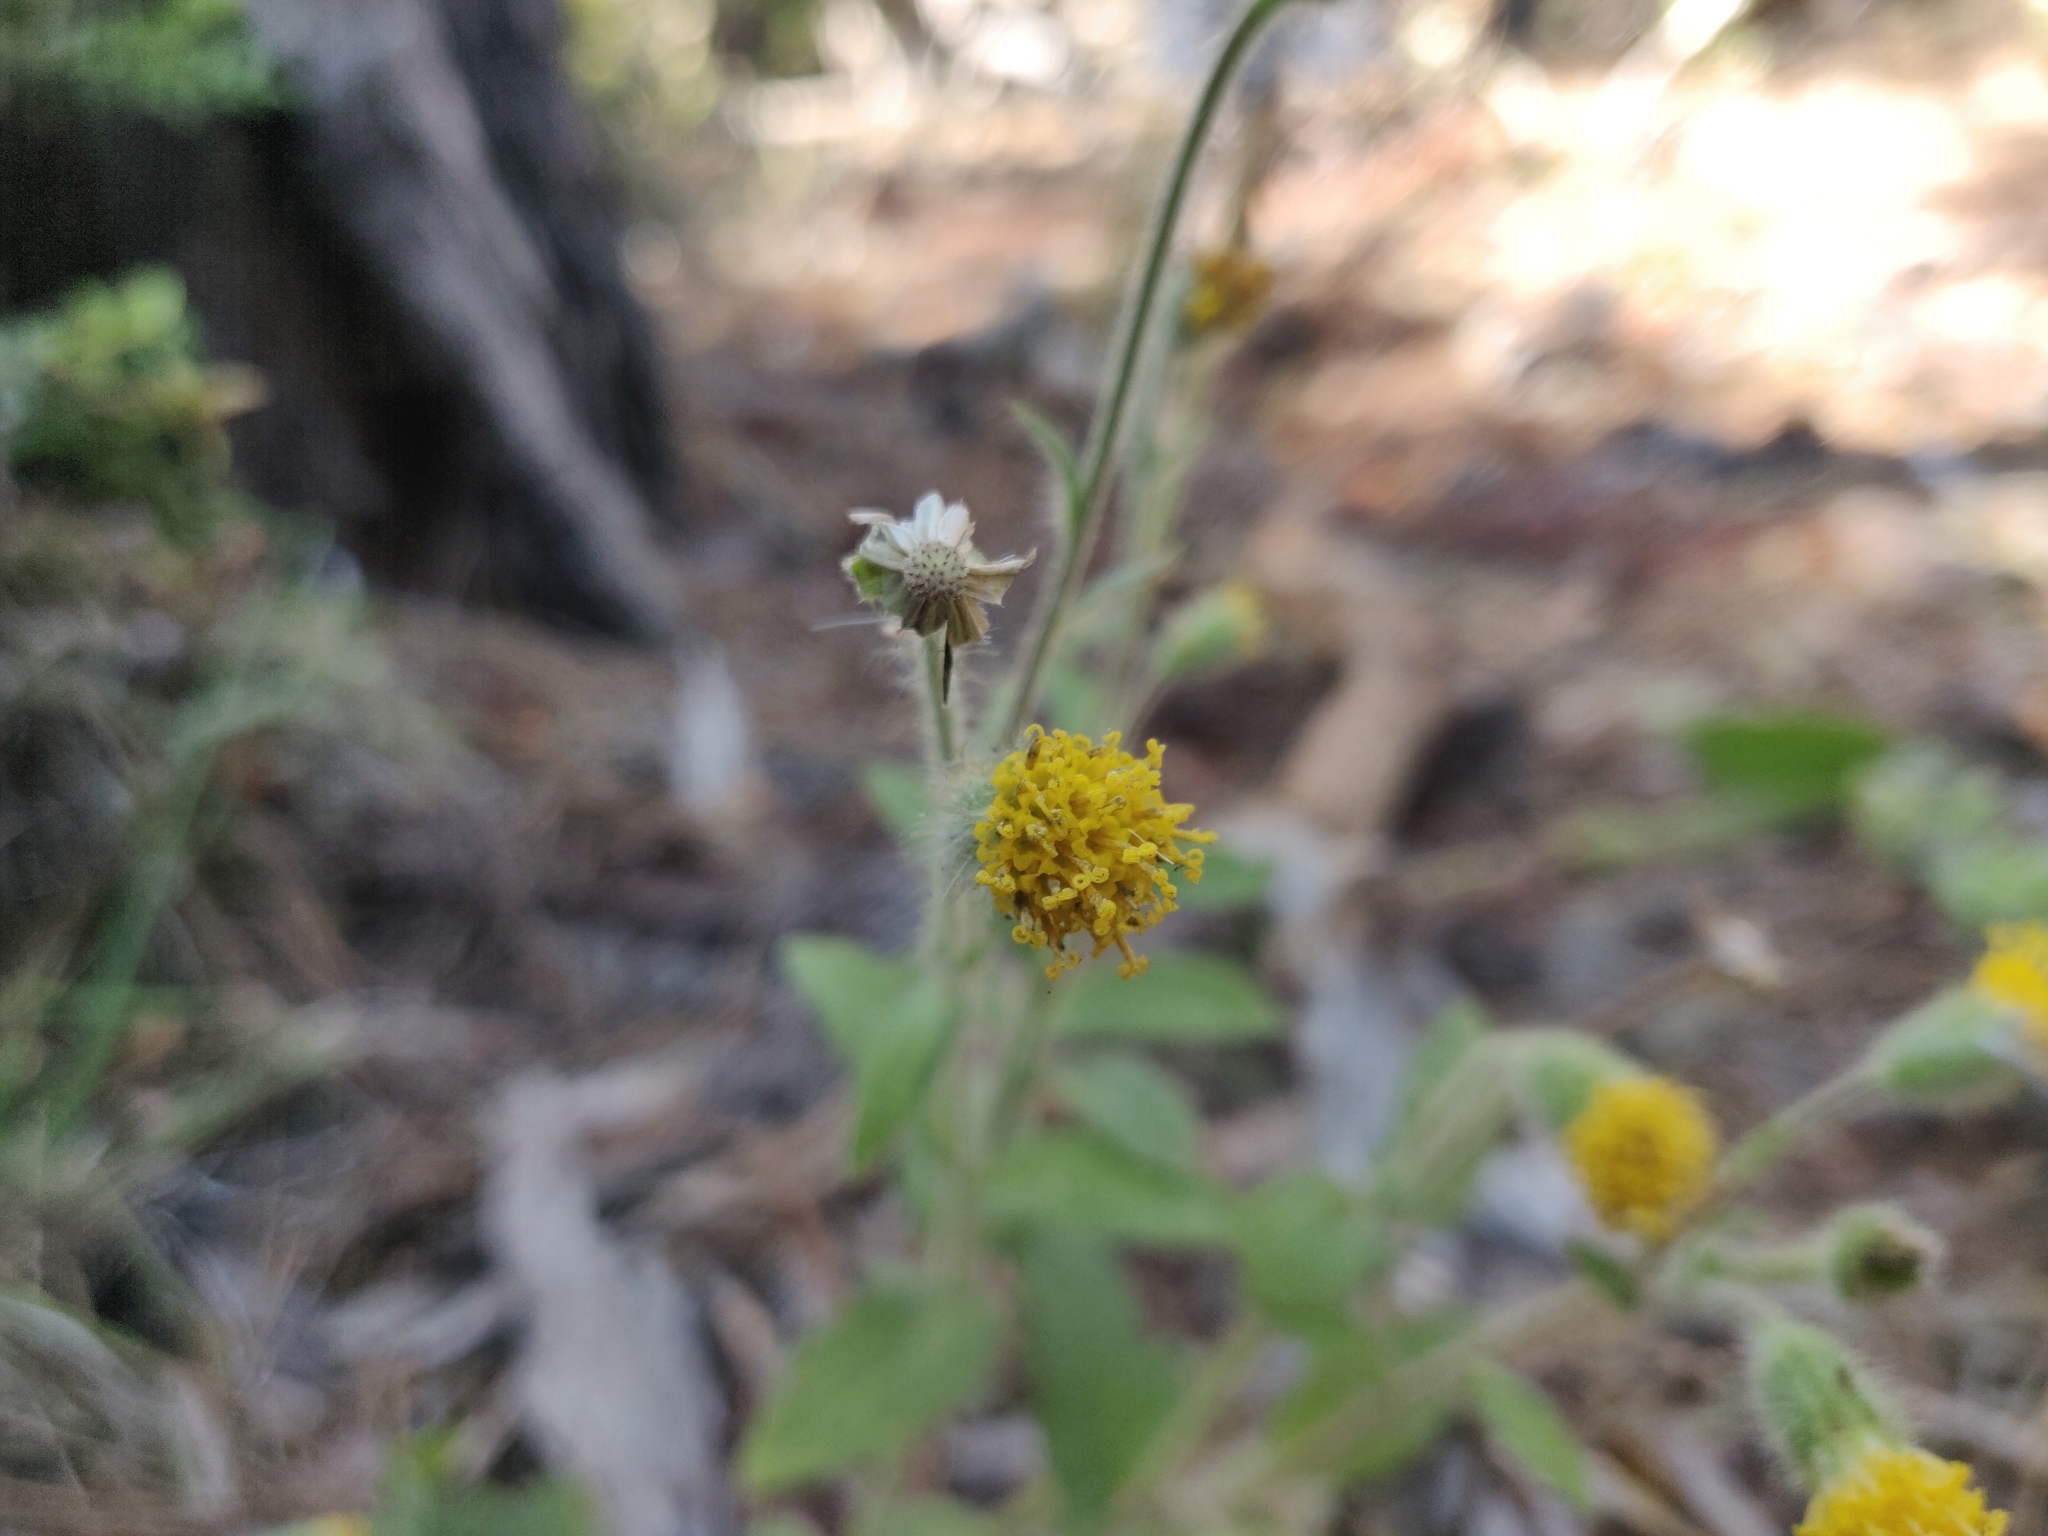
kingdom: Plantae
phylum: Tracheophyta
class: Magnoliopsida
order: Asterales
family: Asteraceae
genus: Arnica
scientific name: Arnica discoidea
